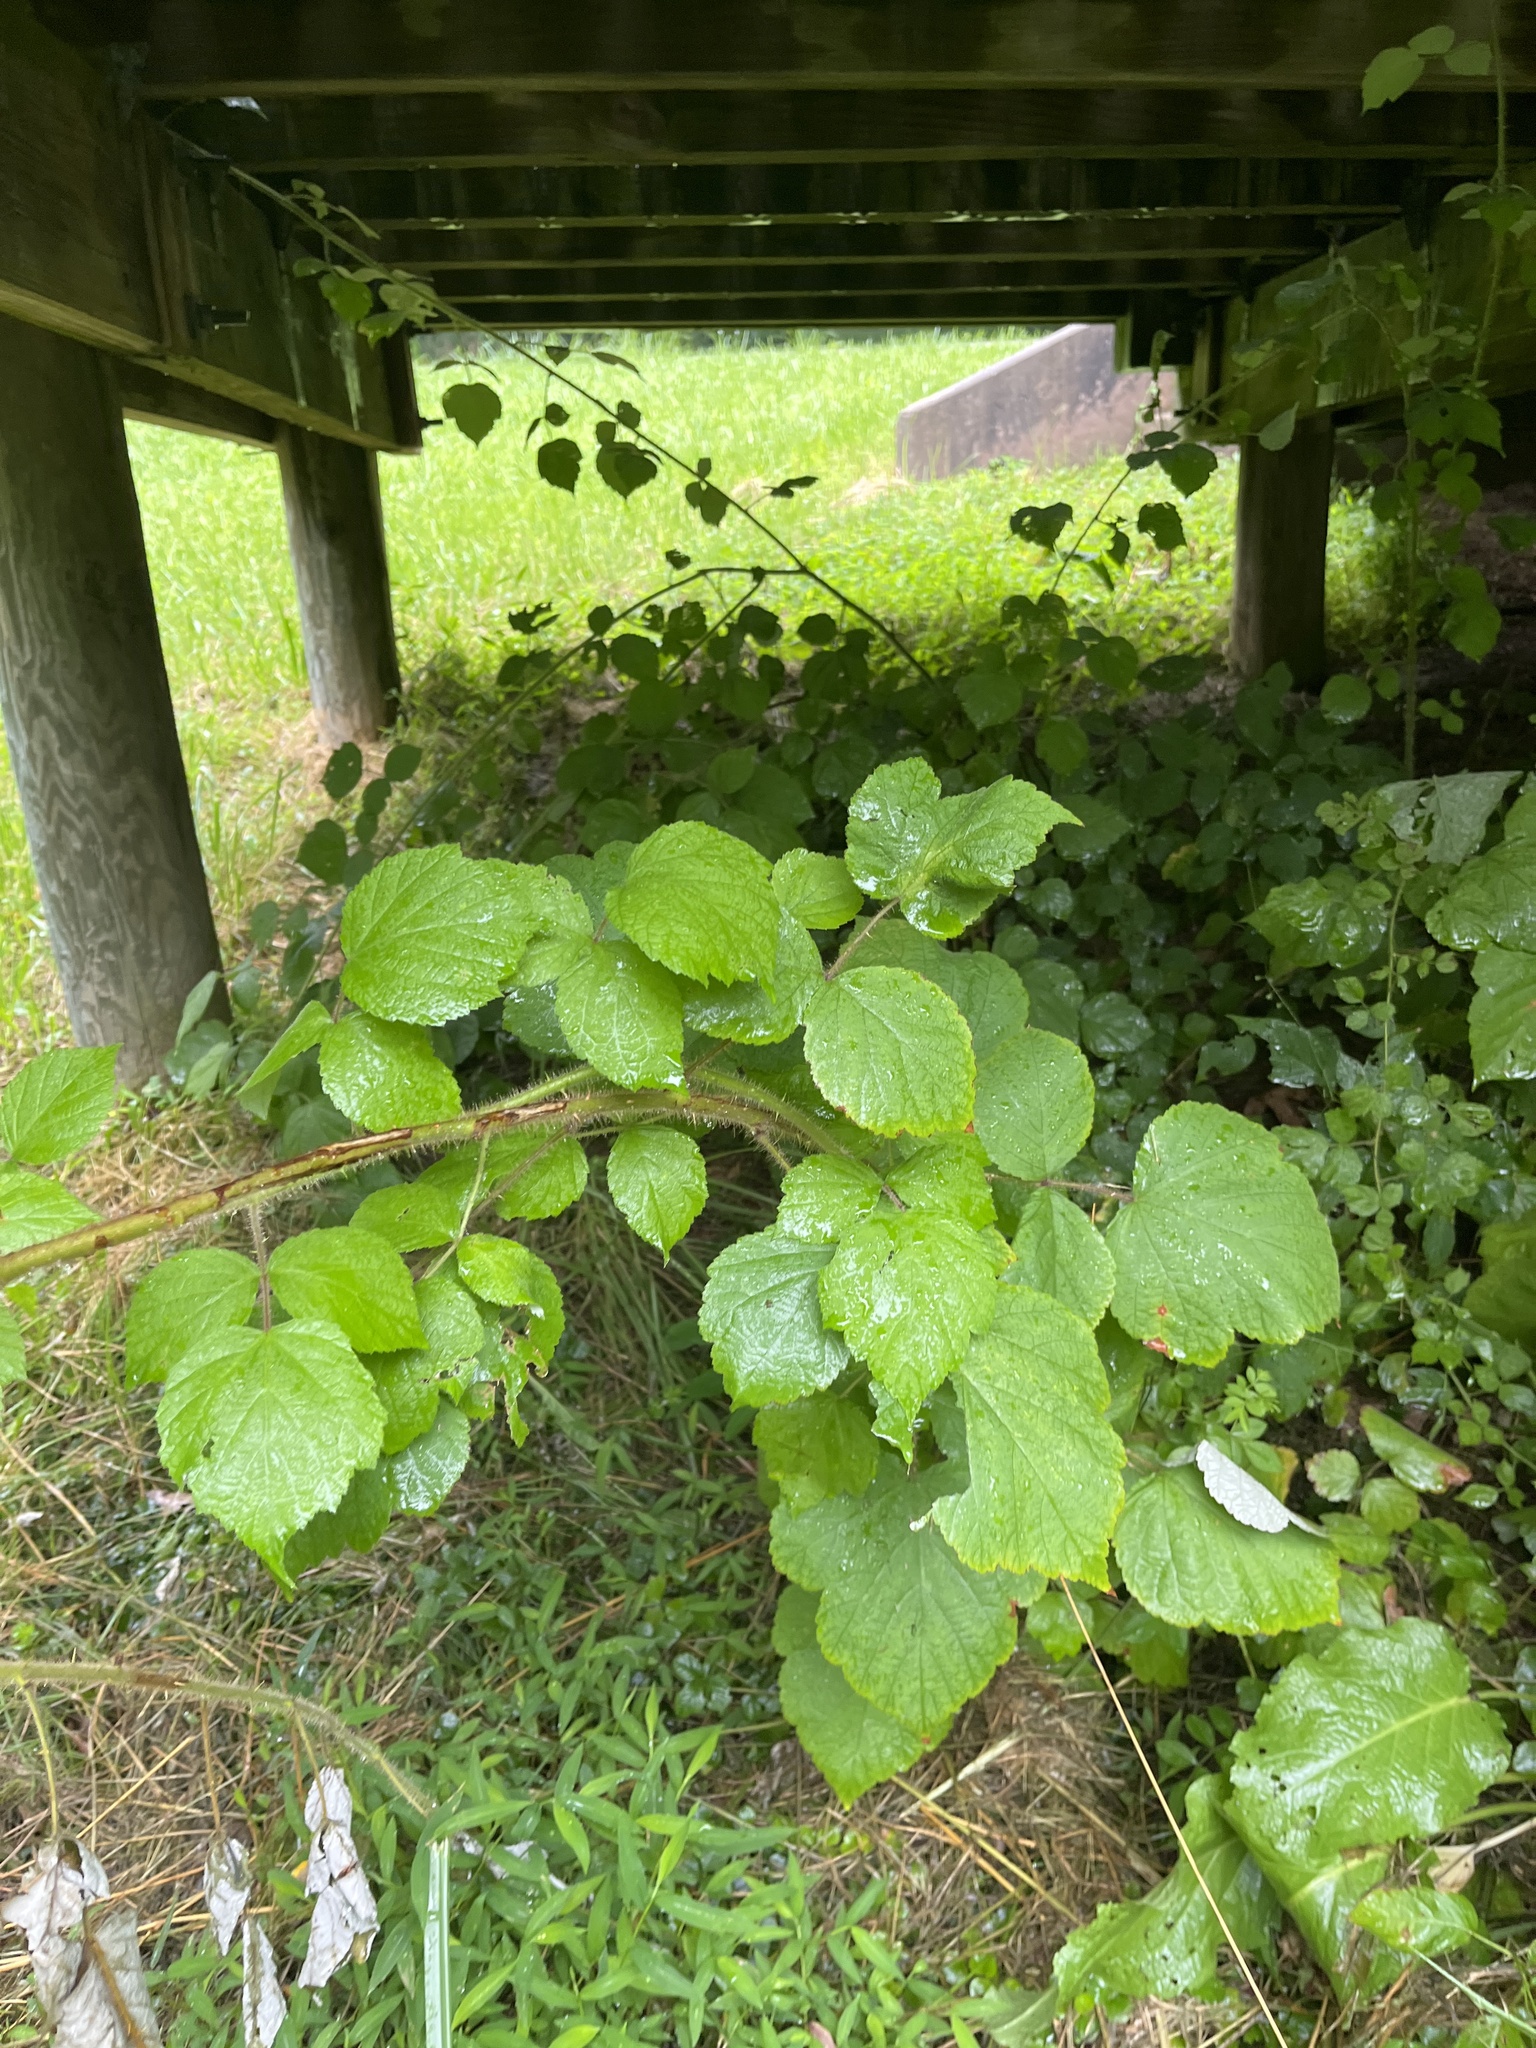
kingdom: Plantae
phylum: Tracheophyta
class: Magnoliopsida
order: Rosales
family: Rosaceae
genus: Rubus
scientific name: Rubus phoenicolasius
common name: Japanese wineberry
